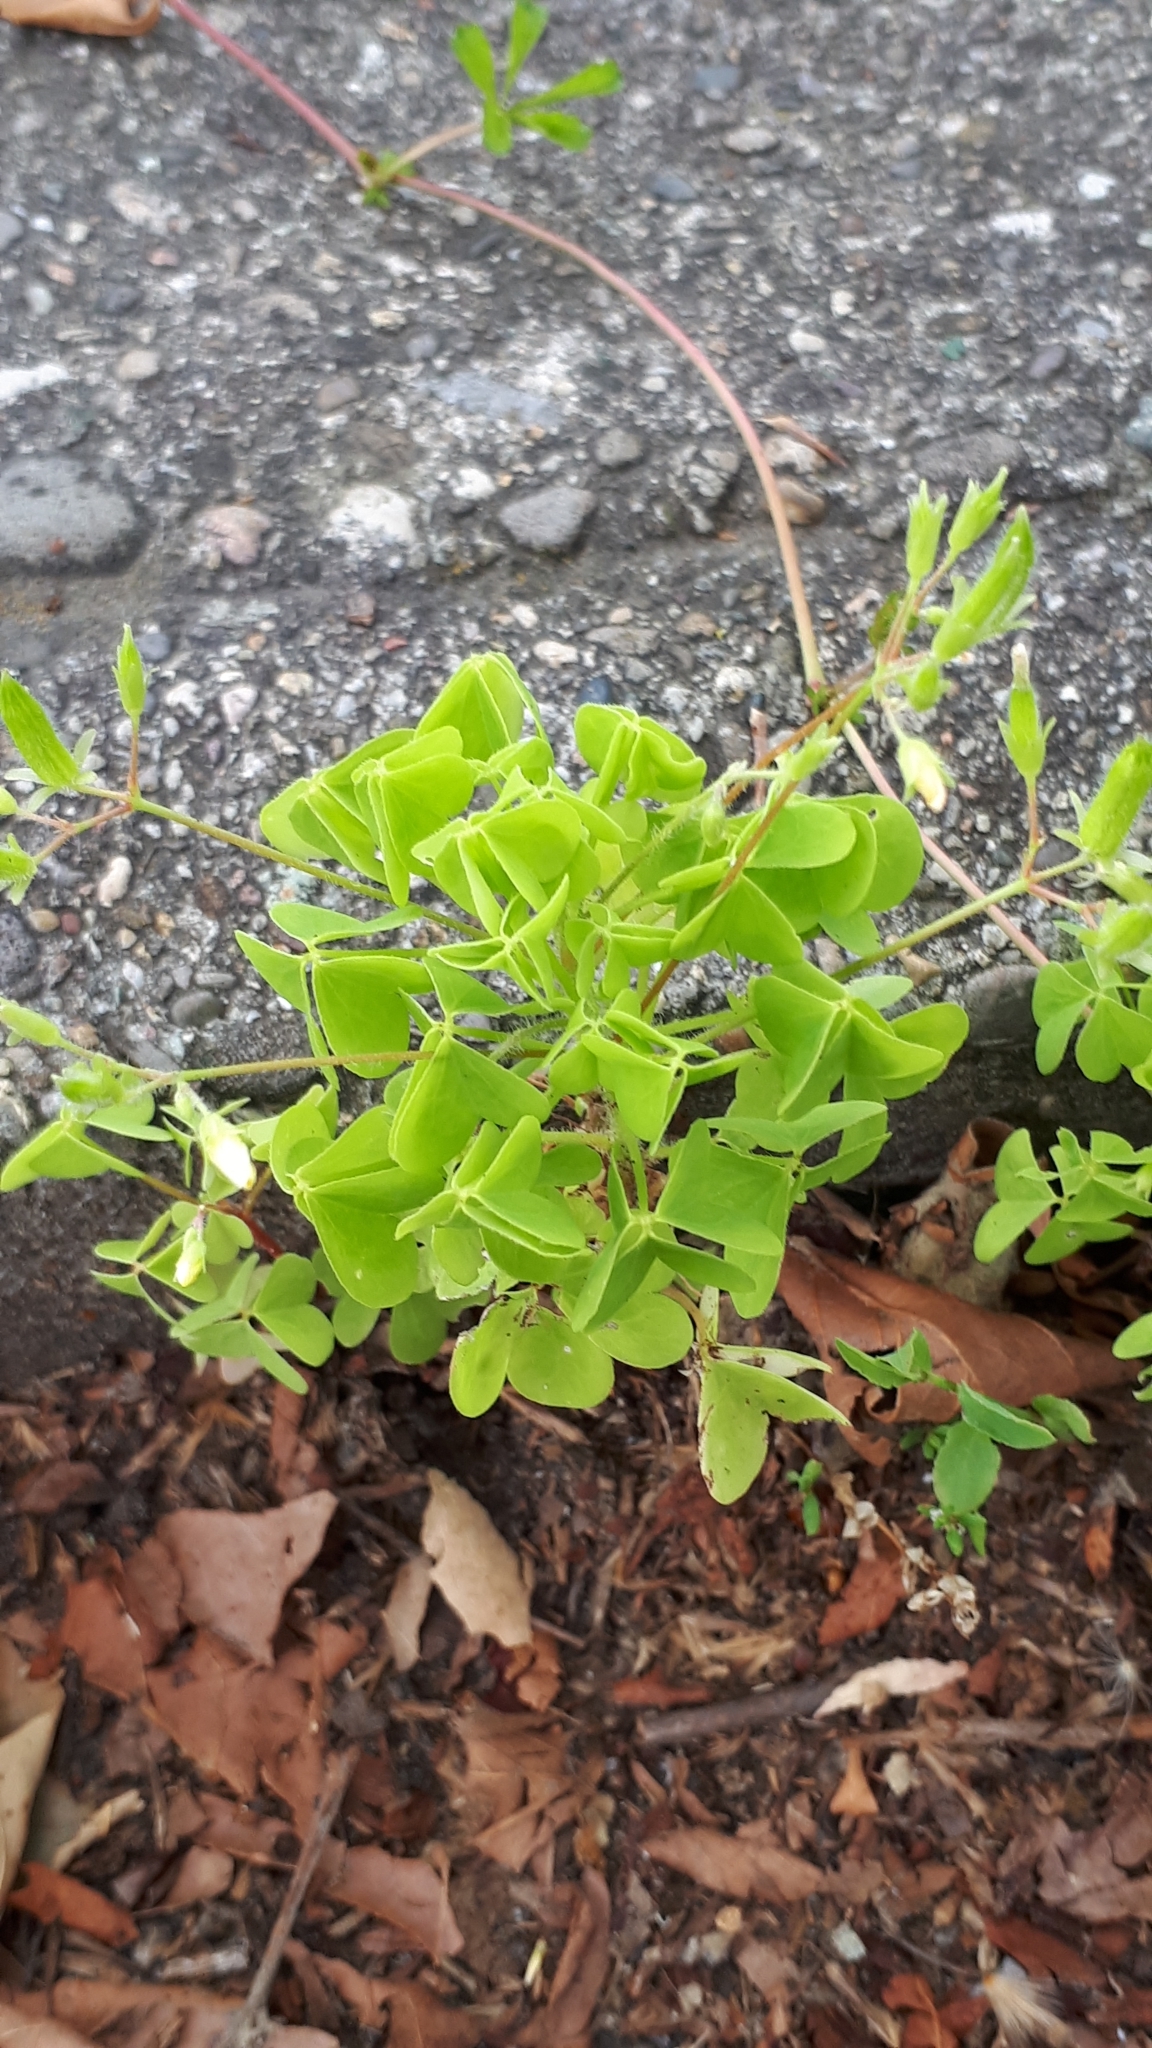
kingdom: Plantae
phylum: Tracheophyta
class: Magnoliopsida
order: Oxalidales
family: Oxalidaceae
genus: Oxalis
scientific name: Oxalis stricta
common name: Upright yellow-sorrel
